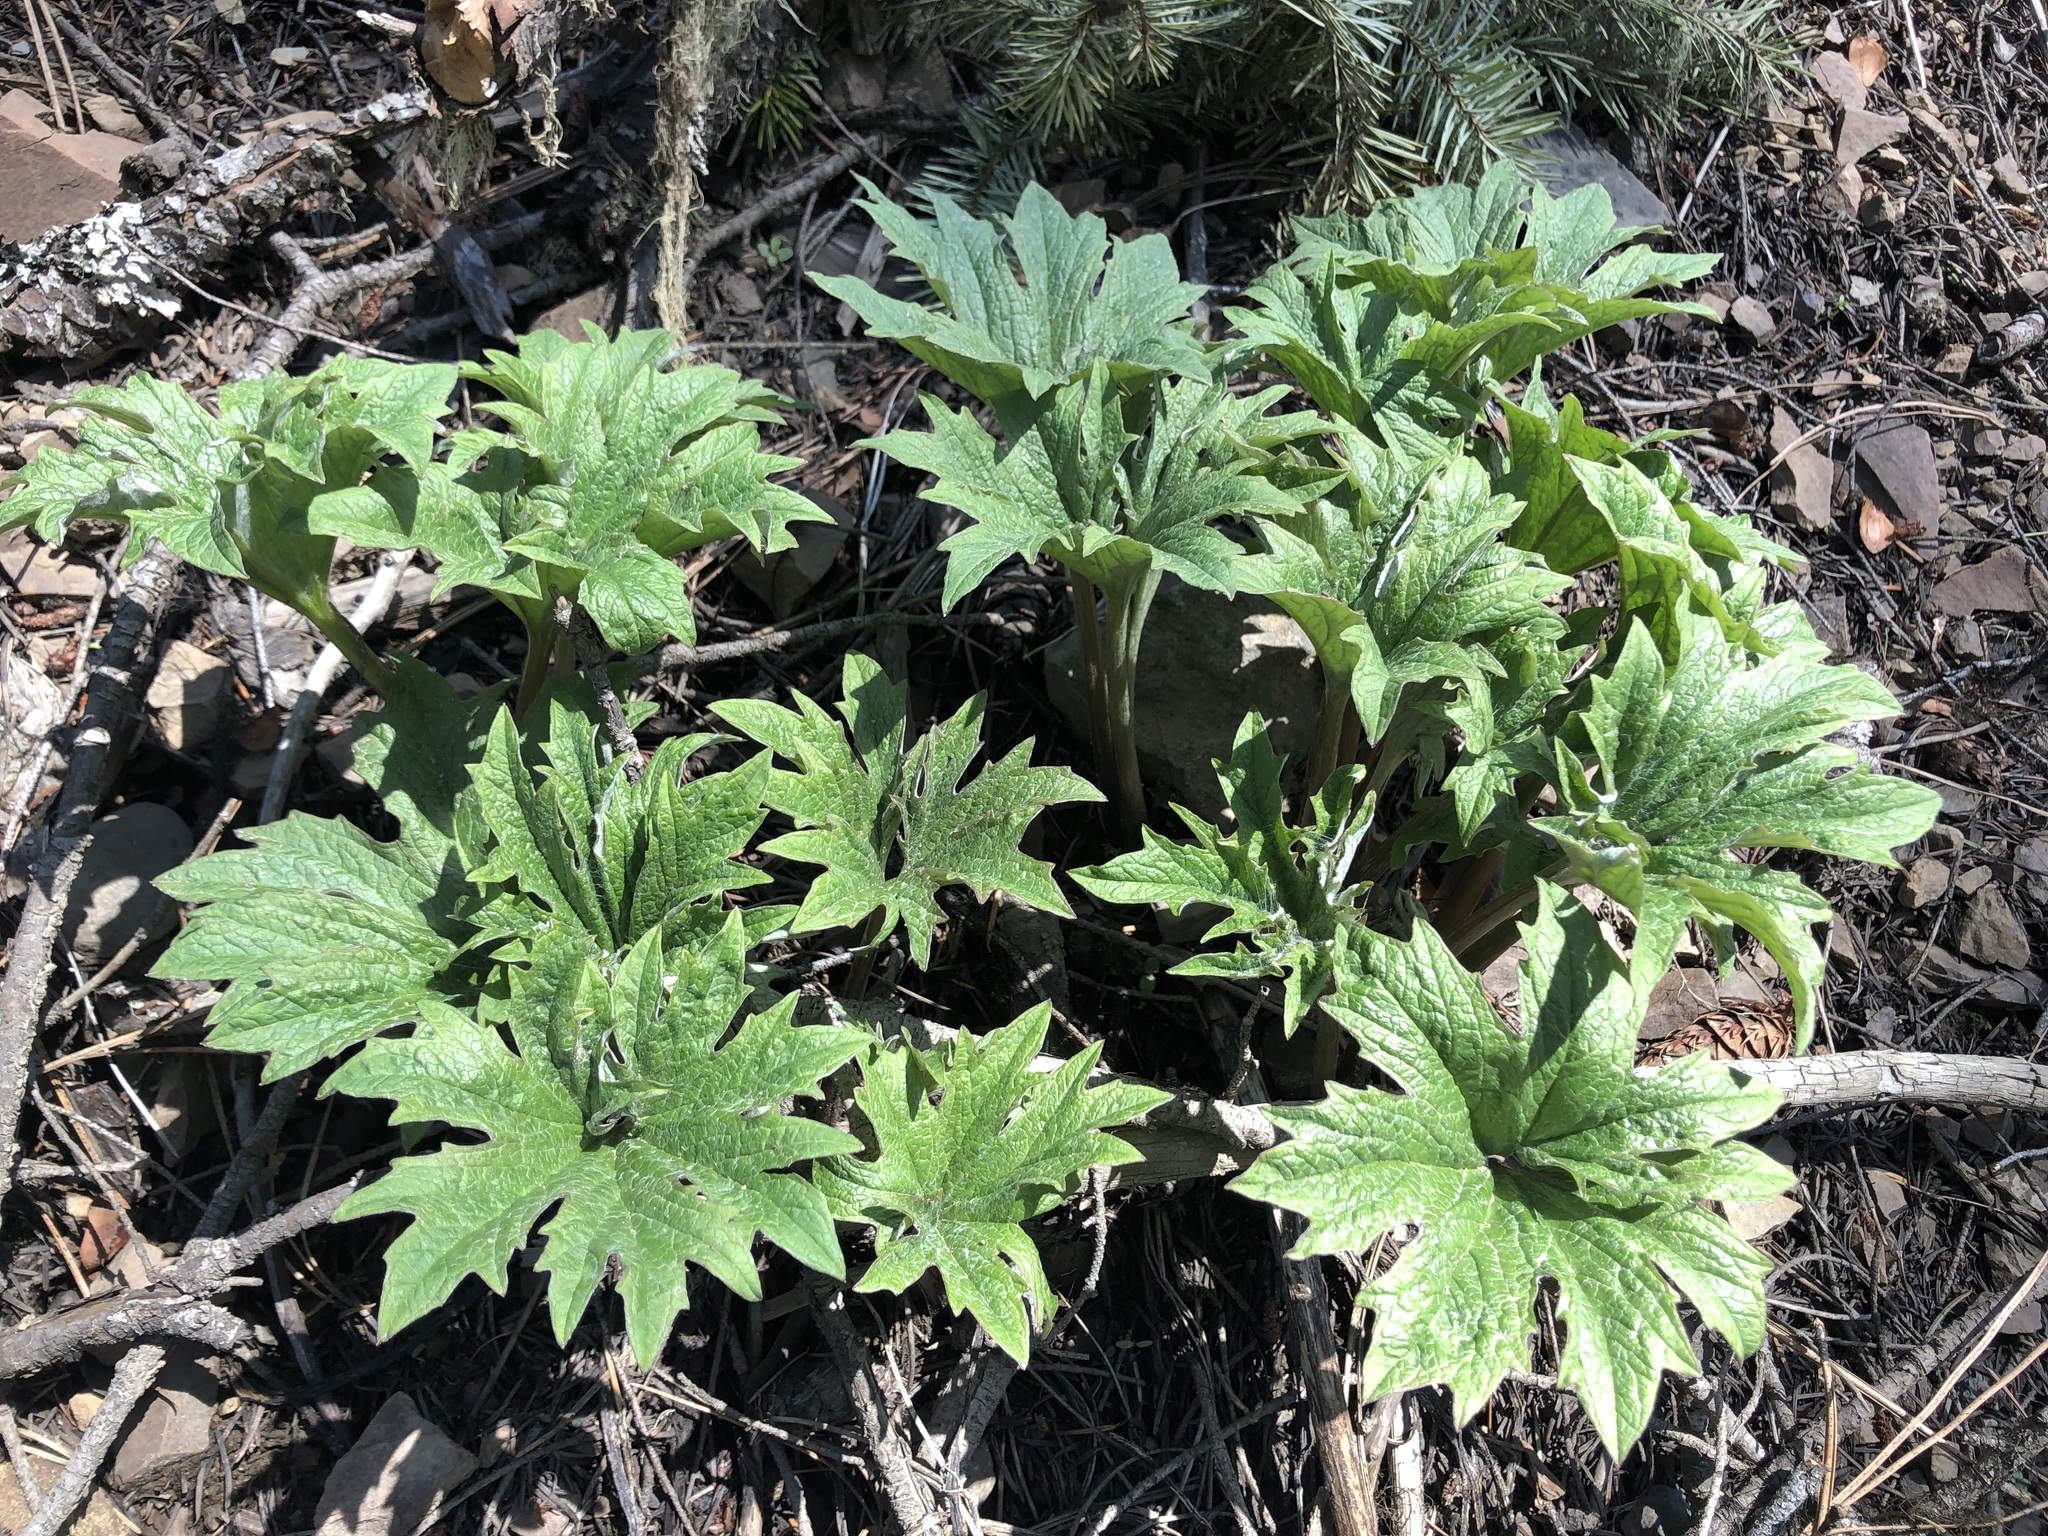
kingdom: Plantae
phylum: Tracheophyta
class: Magnoliopsida
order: Asterales
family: Asteraceae
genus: Cacaliopsis
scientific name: Cacaliopsis nardosmia
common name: Silvercrown
